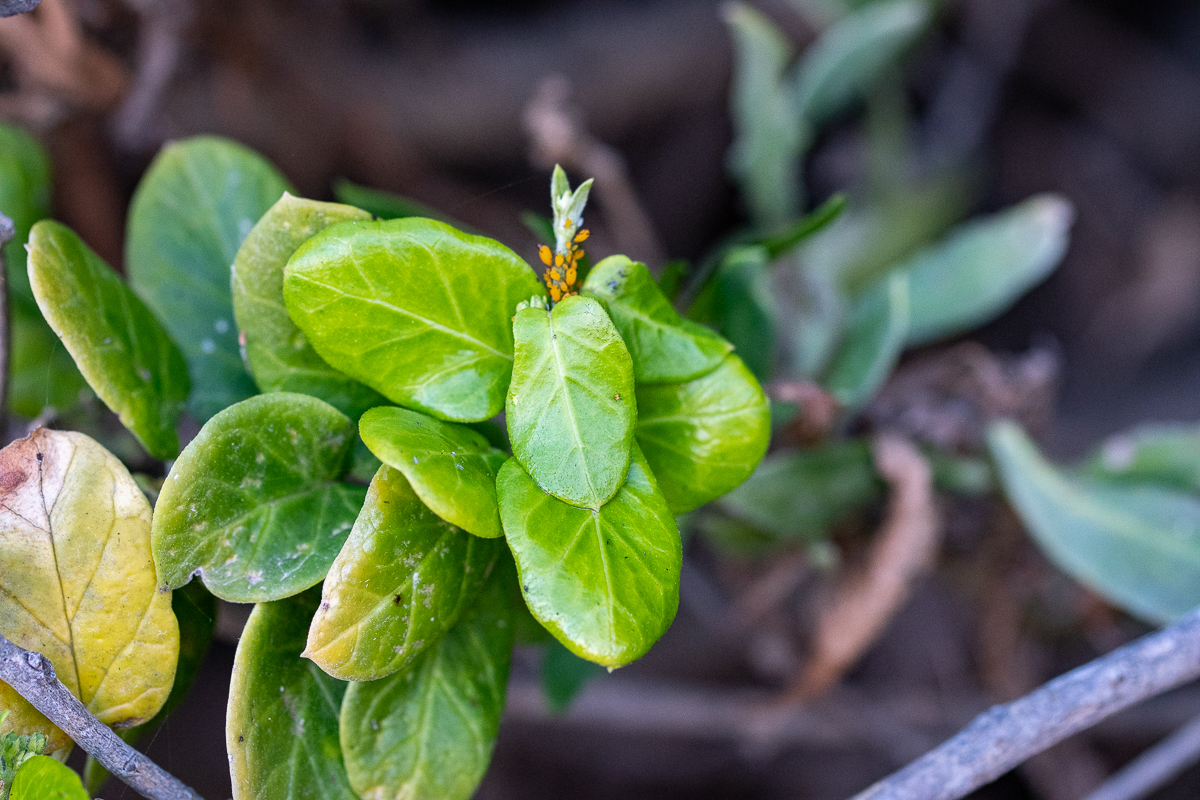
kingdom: Plantae
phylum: Tracheophyta
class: Magnoliopsida
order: Gentianales
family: Apocynaceae
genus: Cynanchum
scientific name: Cynanchum obtusifolium
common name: Monkey-rope
